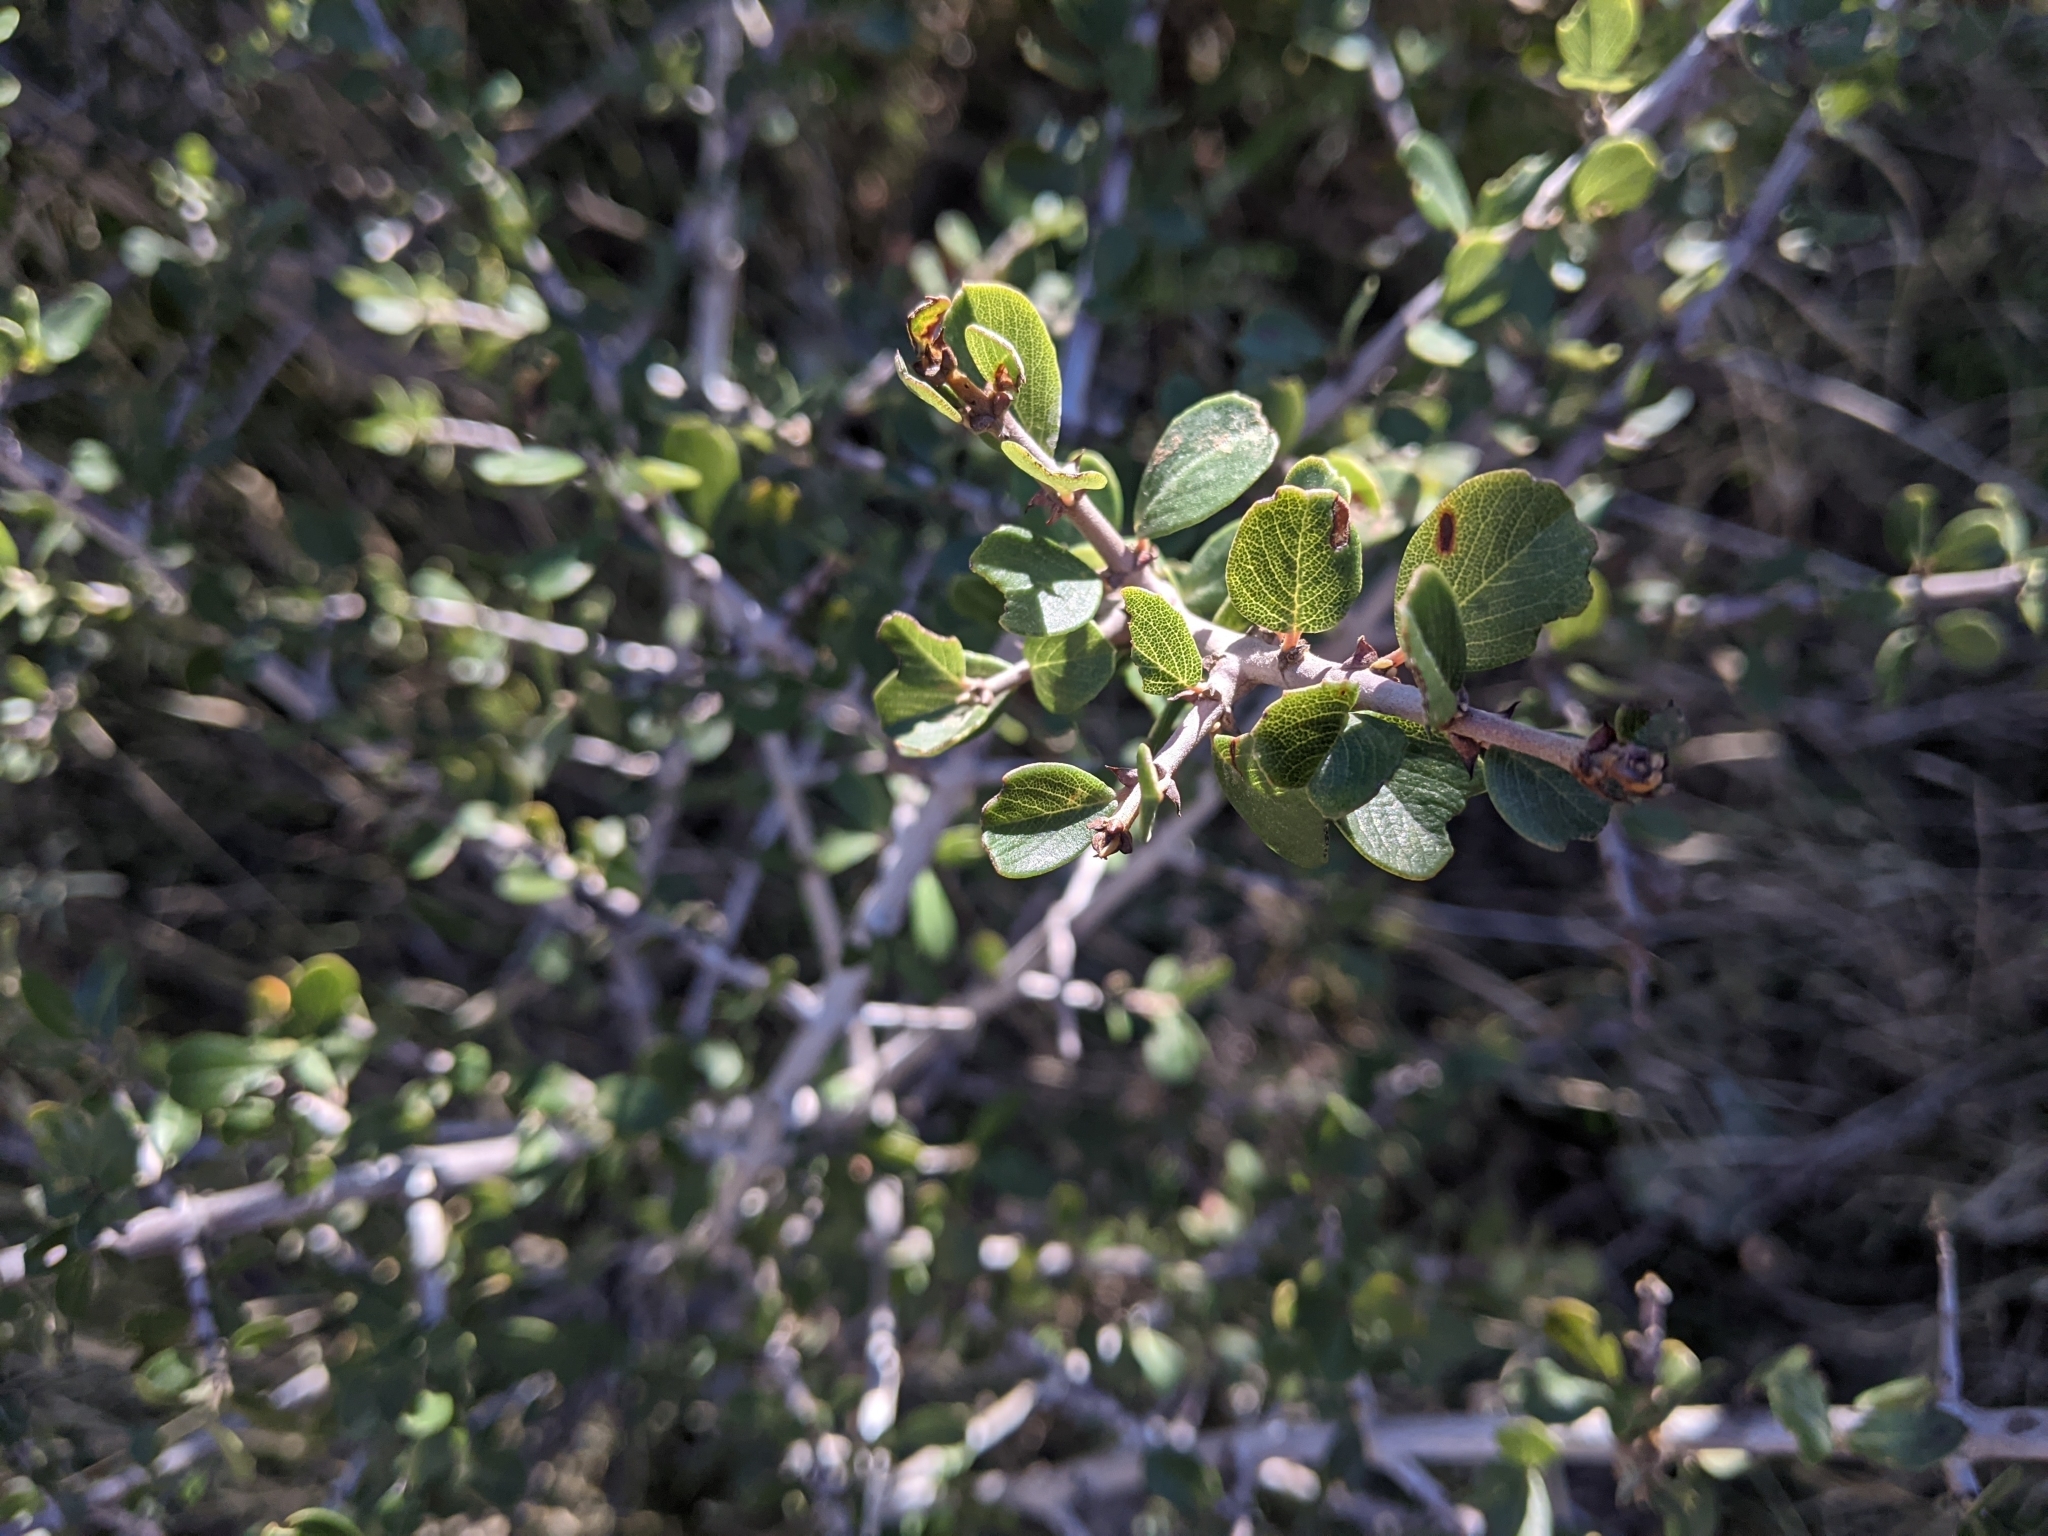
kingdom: Plantae
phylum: Tracheophyta
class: Magnoliopsida
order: Rosales
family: Rhamnaceae
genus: Ceanothus
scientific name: Ceanothus cuneatus
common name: Cuneate ceanothus
